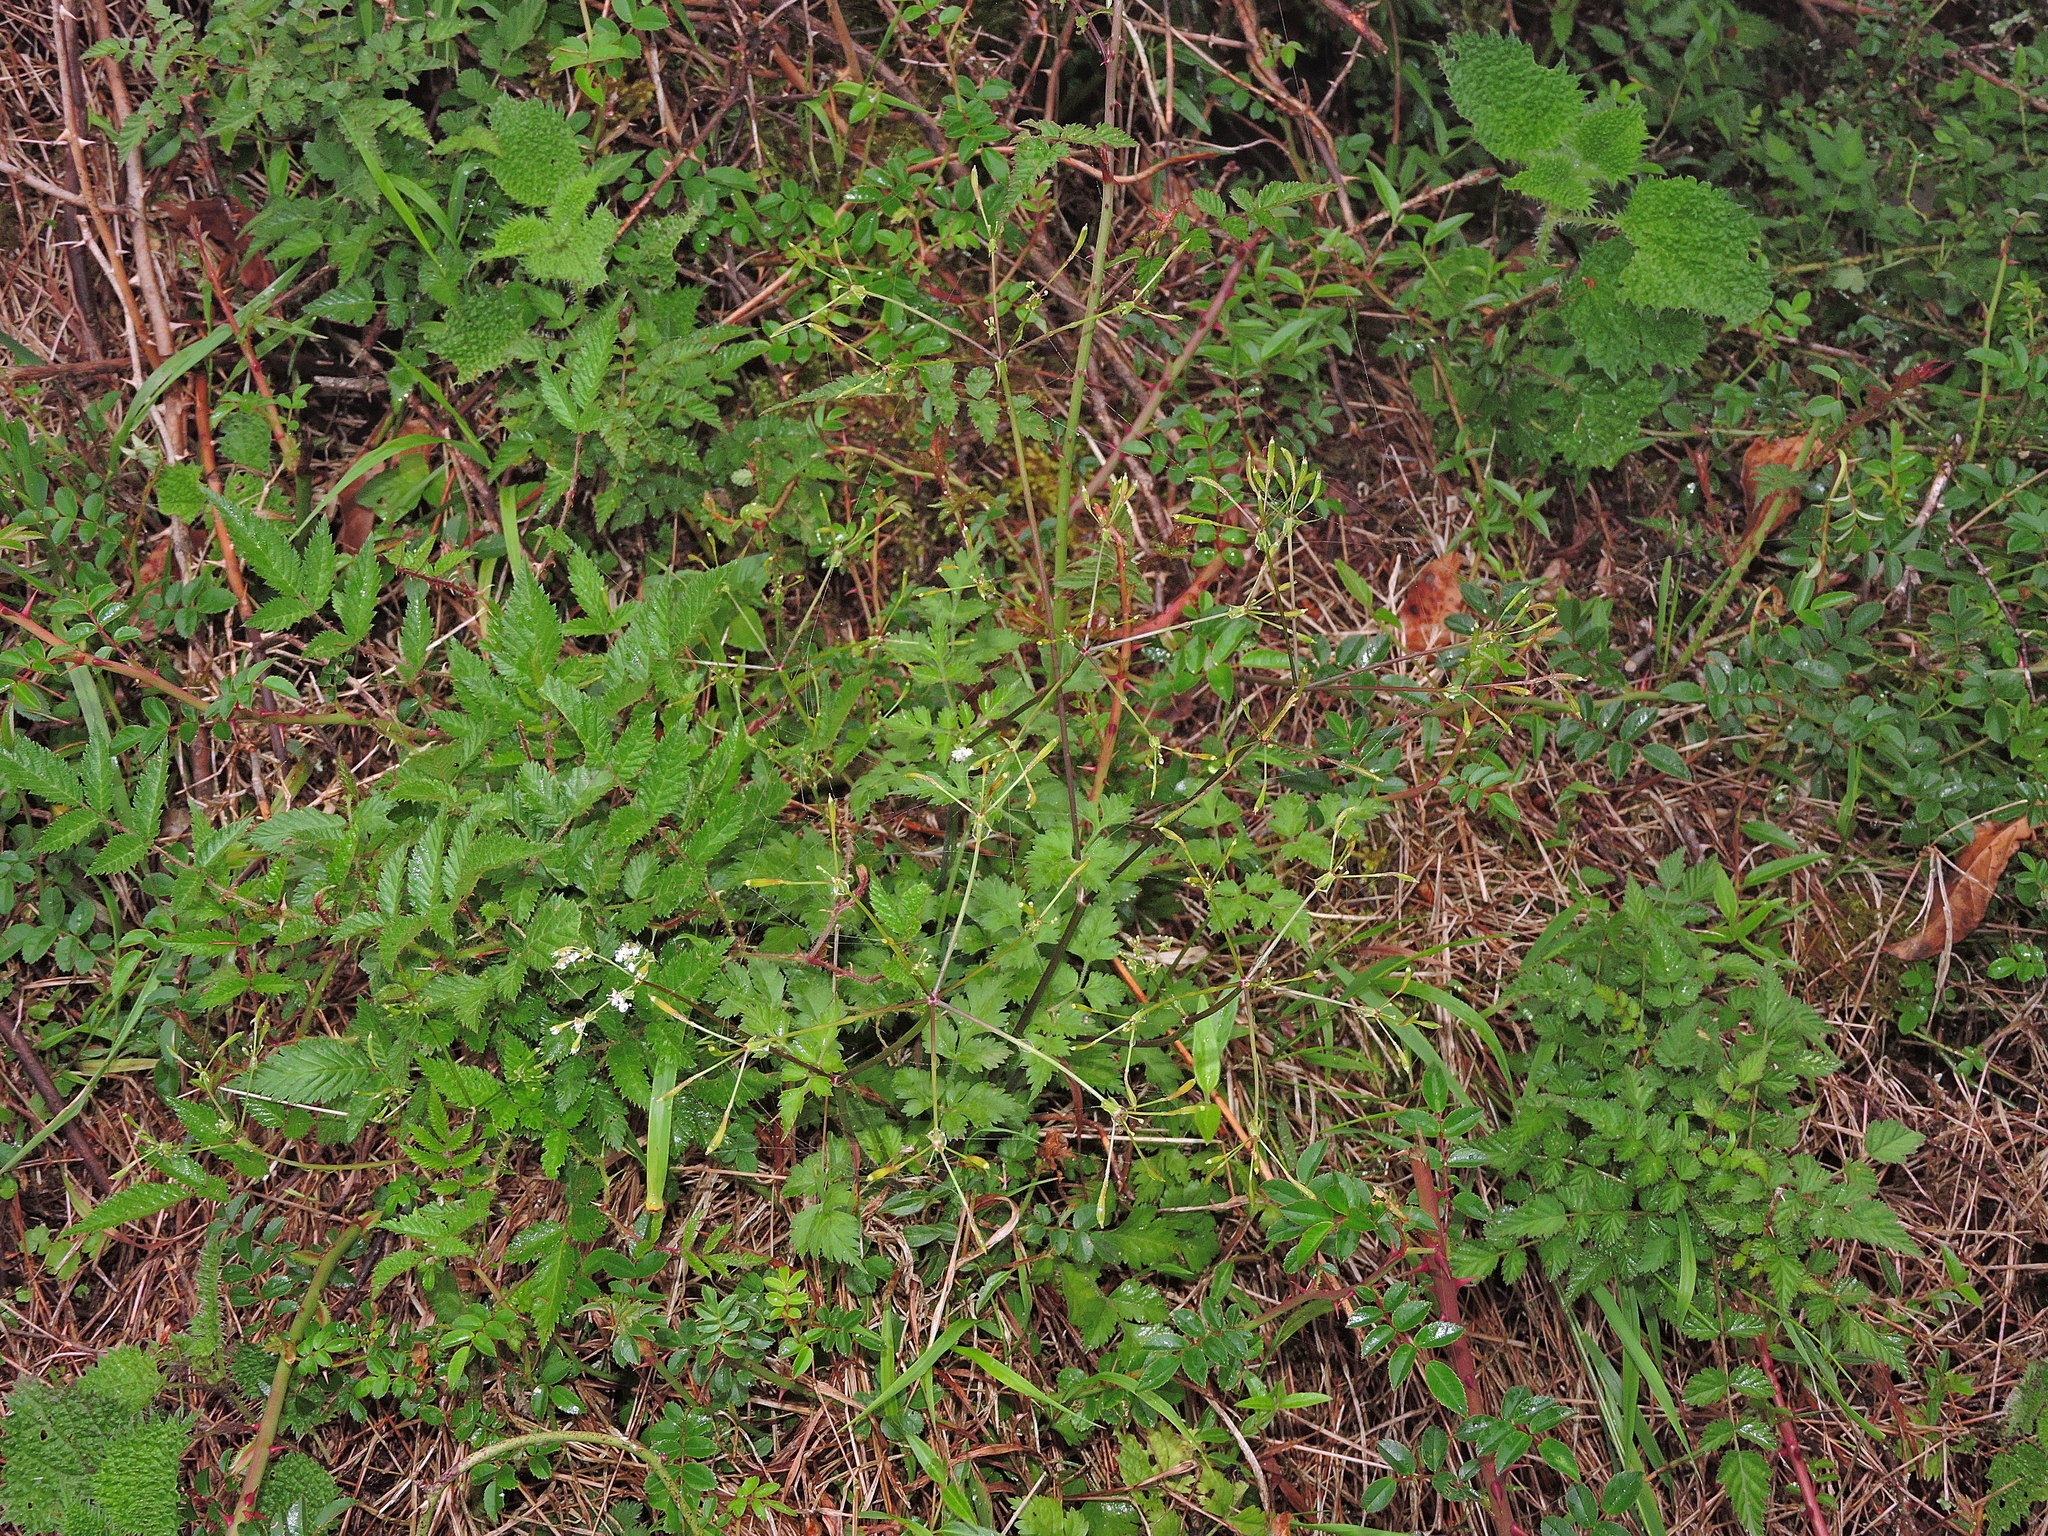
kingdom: Plantae
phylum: Tracheophyta
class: Magnoliopsida
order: Apiales
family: Apiaceae
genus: Osmorhiza
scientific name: Osmorhiza aristata
